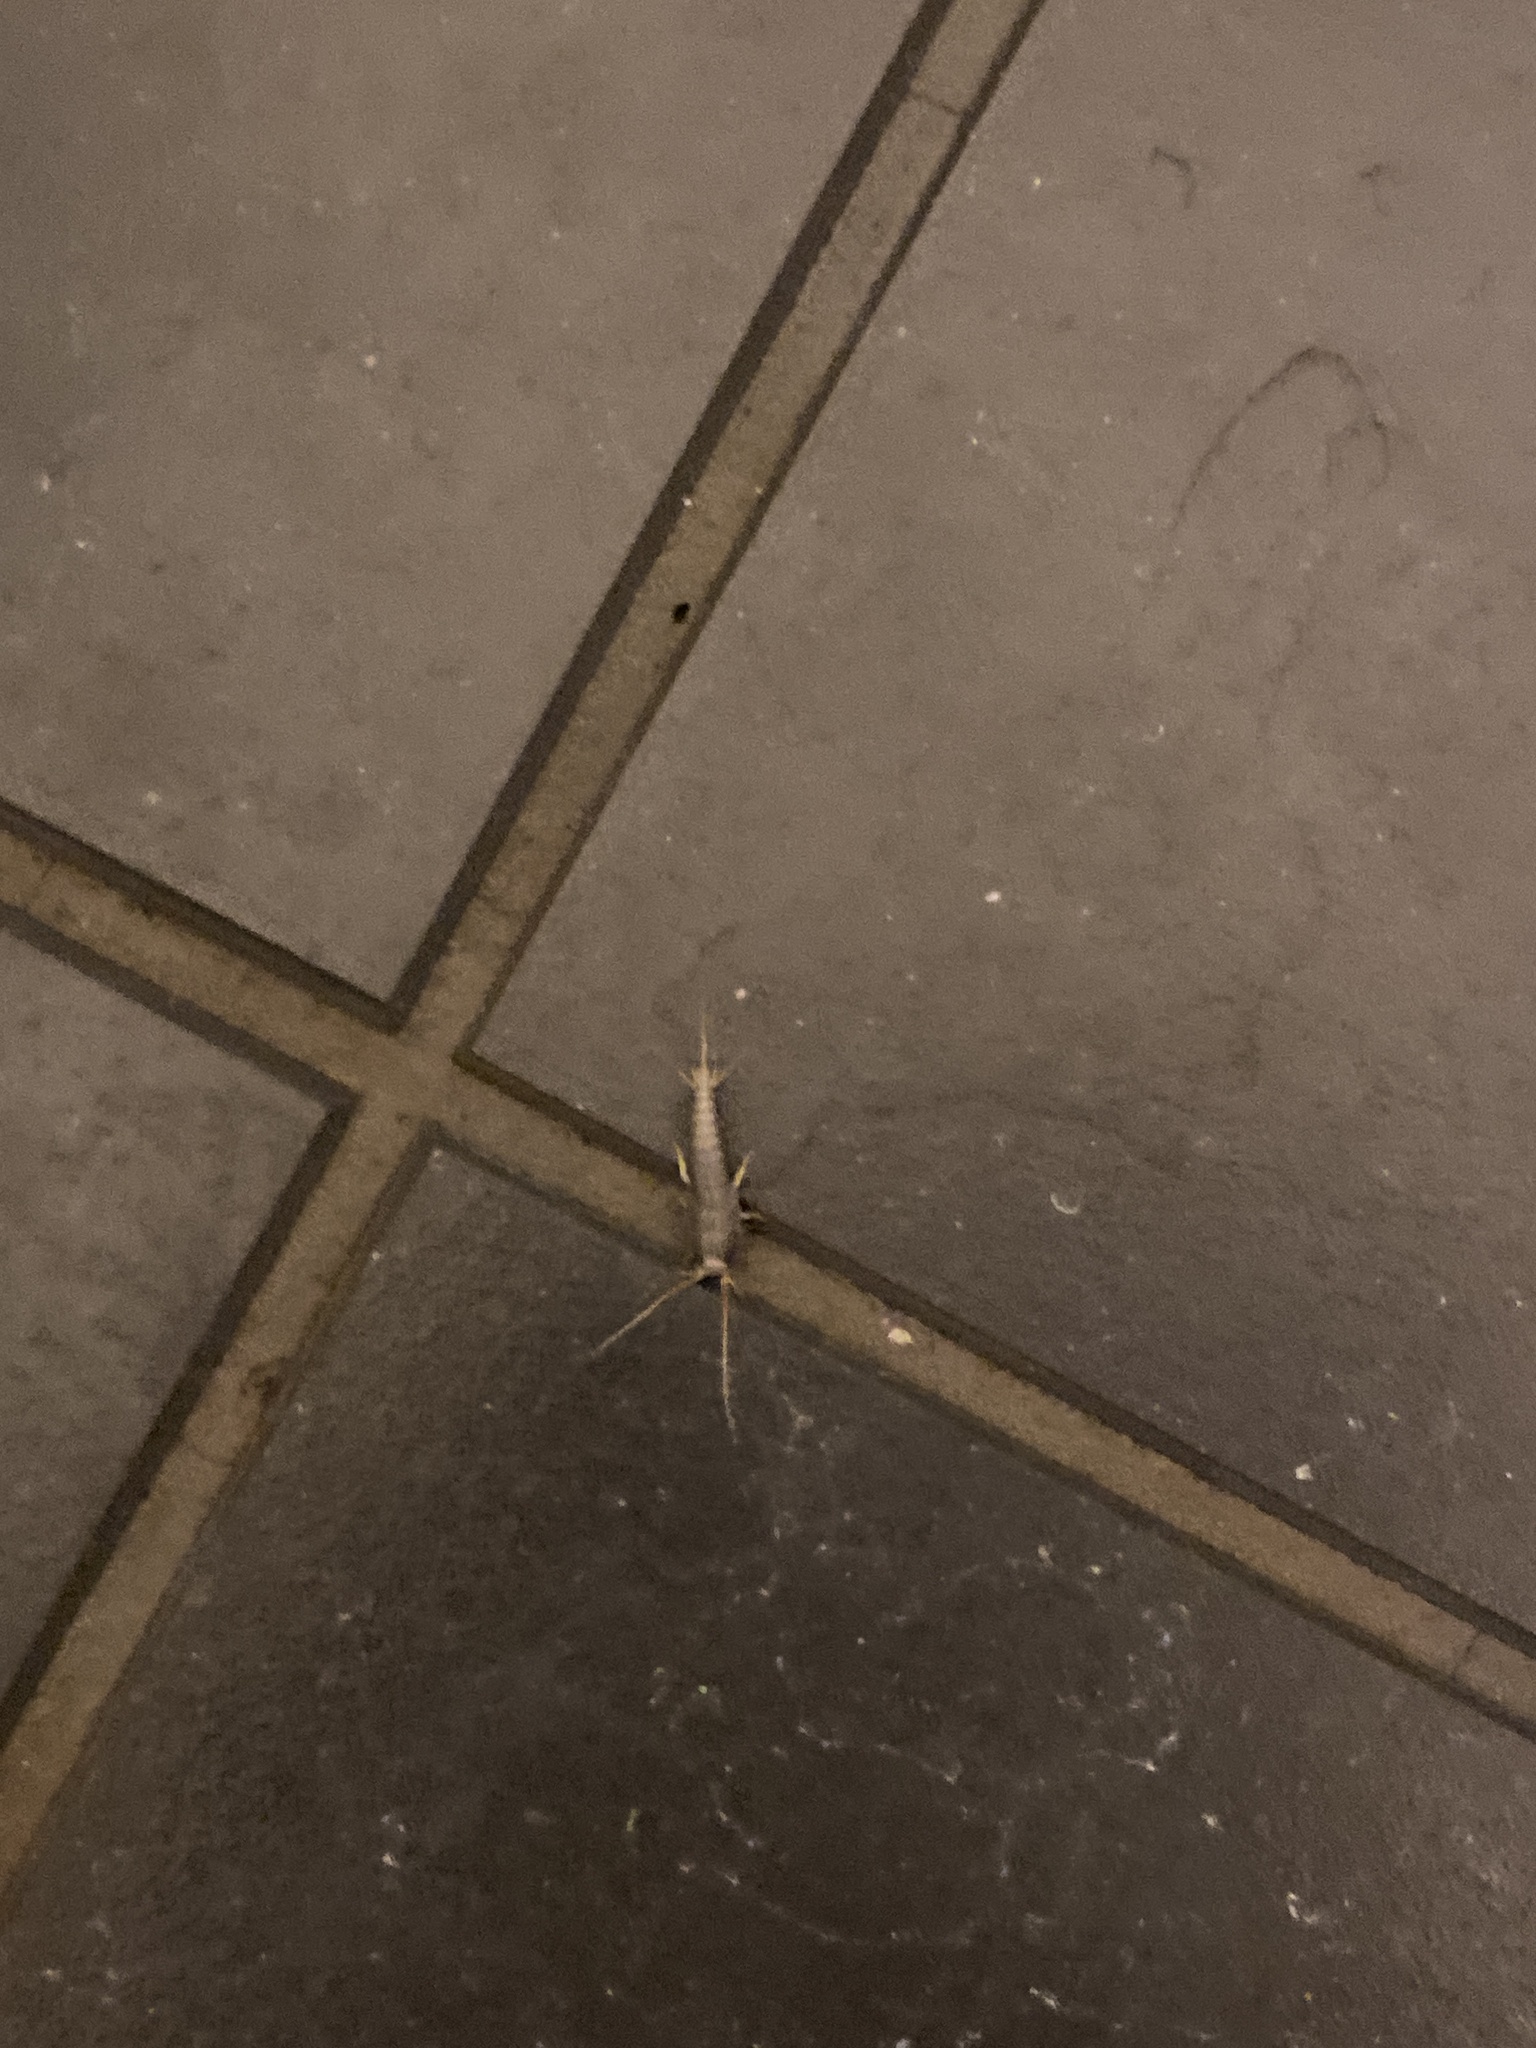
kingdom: Animalia
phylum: Arthropoda
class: Insecta
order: Zygentoma
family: Lepismatidae
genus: Lepisma
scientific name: Lepisma saccharinum
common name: Silverfish
